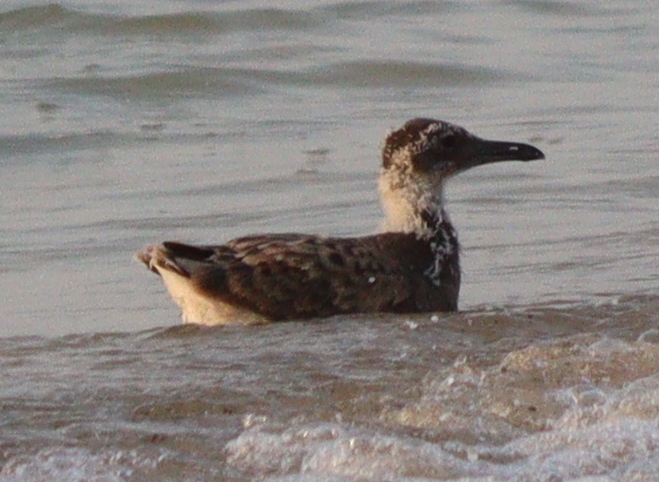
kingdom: Animalia
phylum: Chordata
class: Aves
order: Charadriiformes
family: Laridae
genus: Ichthyaetus
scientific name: Ichthyaetus leucophthalmus
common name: White-eyed gull
